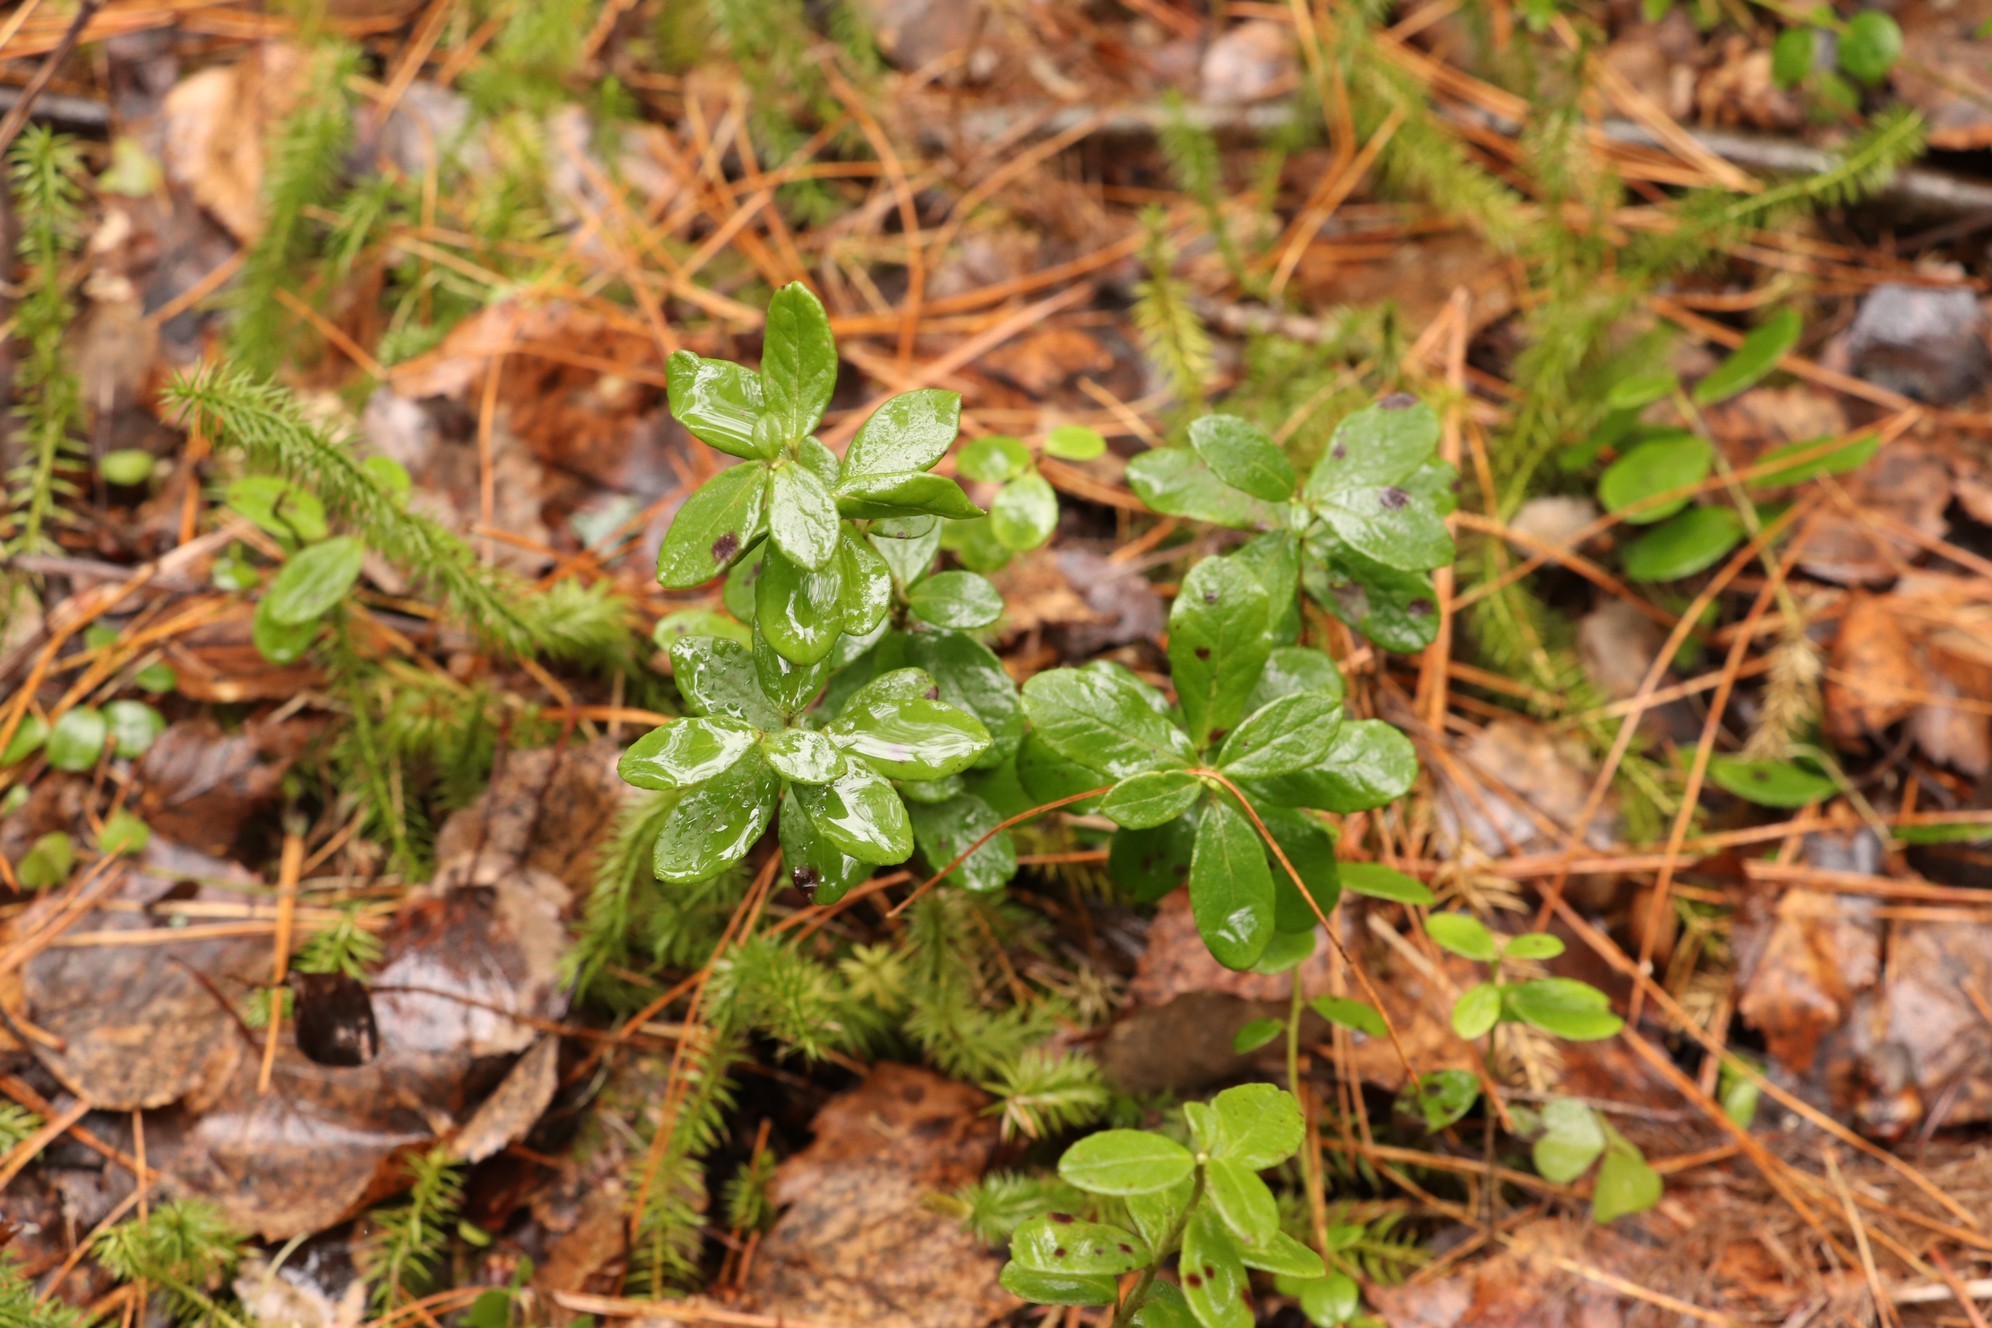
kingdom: Plantae
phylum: Tracheophyta
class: Magnoliopsida
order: Ericales
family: Ericaceae
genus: Vaccinium
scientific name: Vaccinium vitis-idaea
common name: Cowberry
